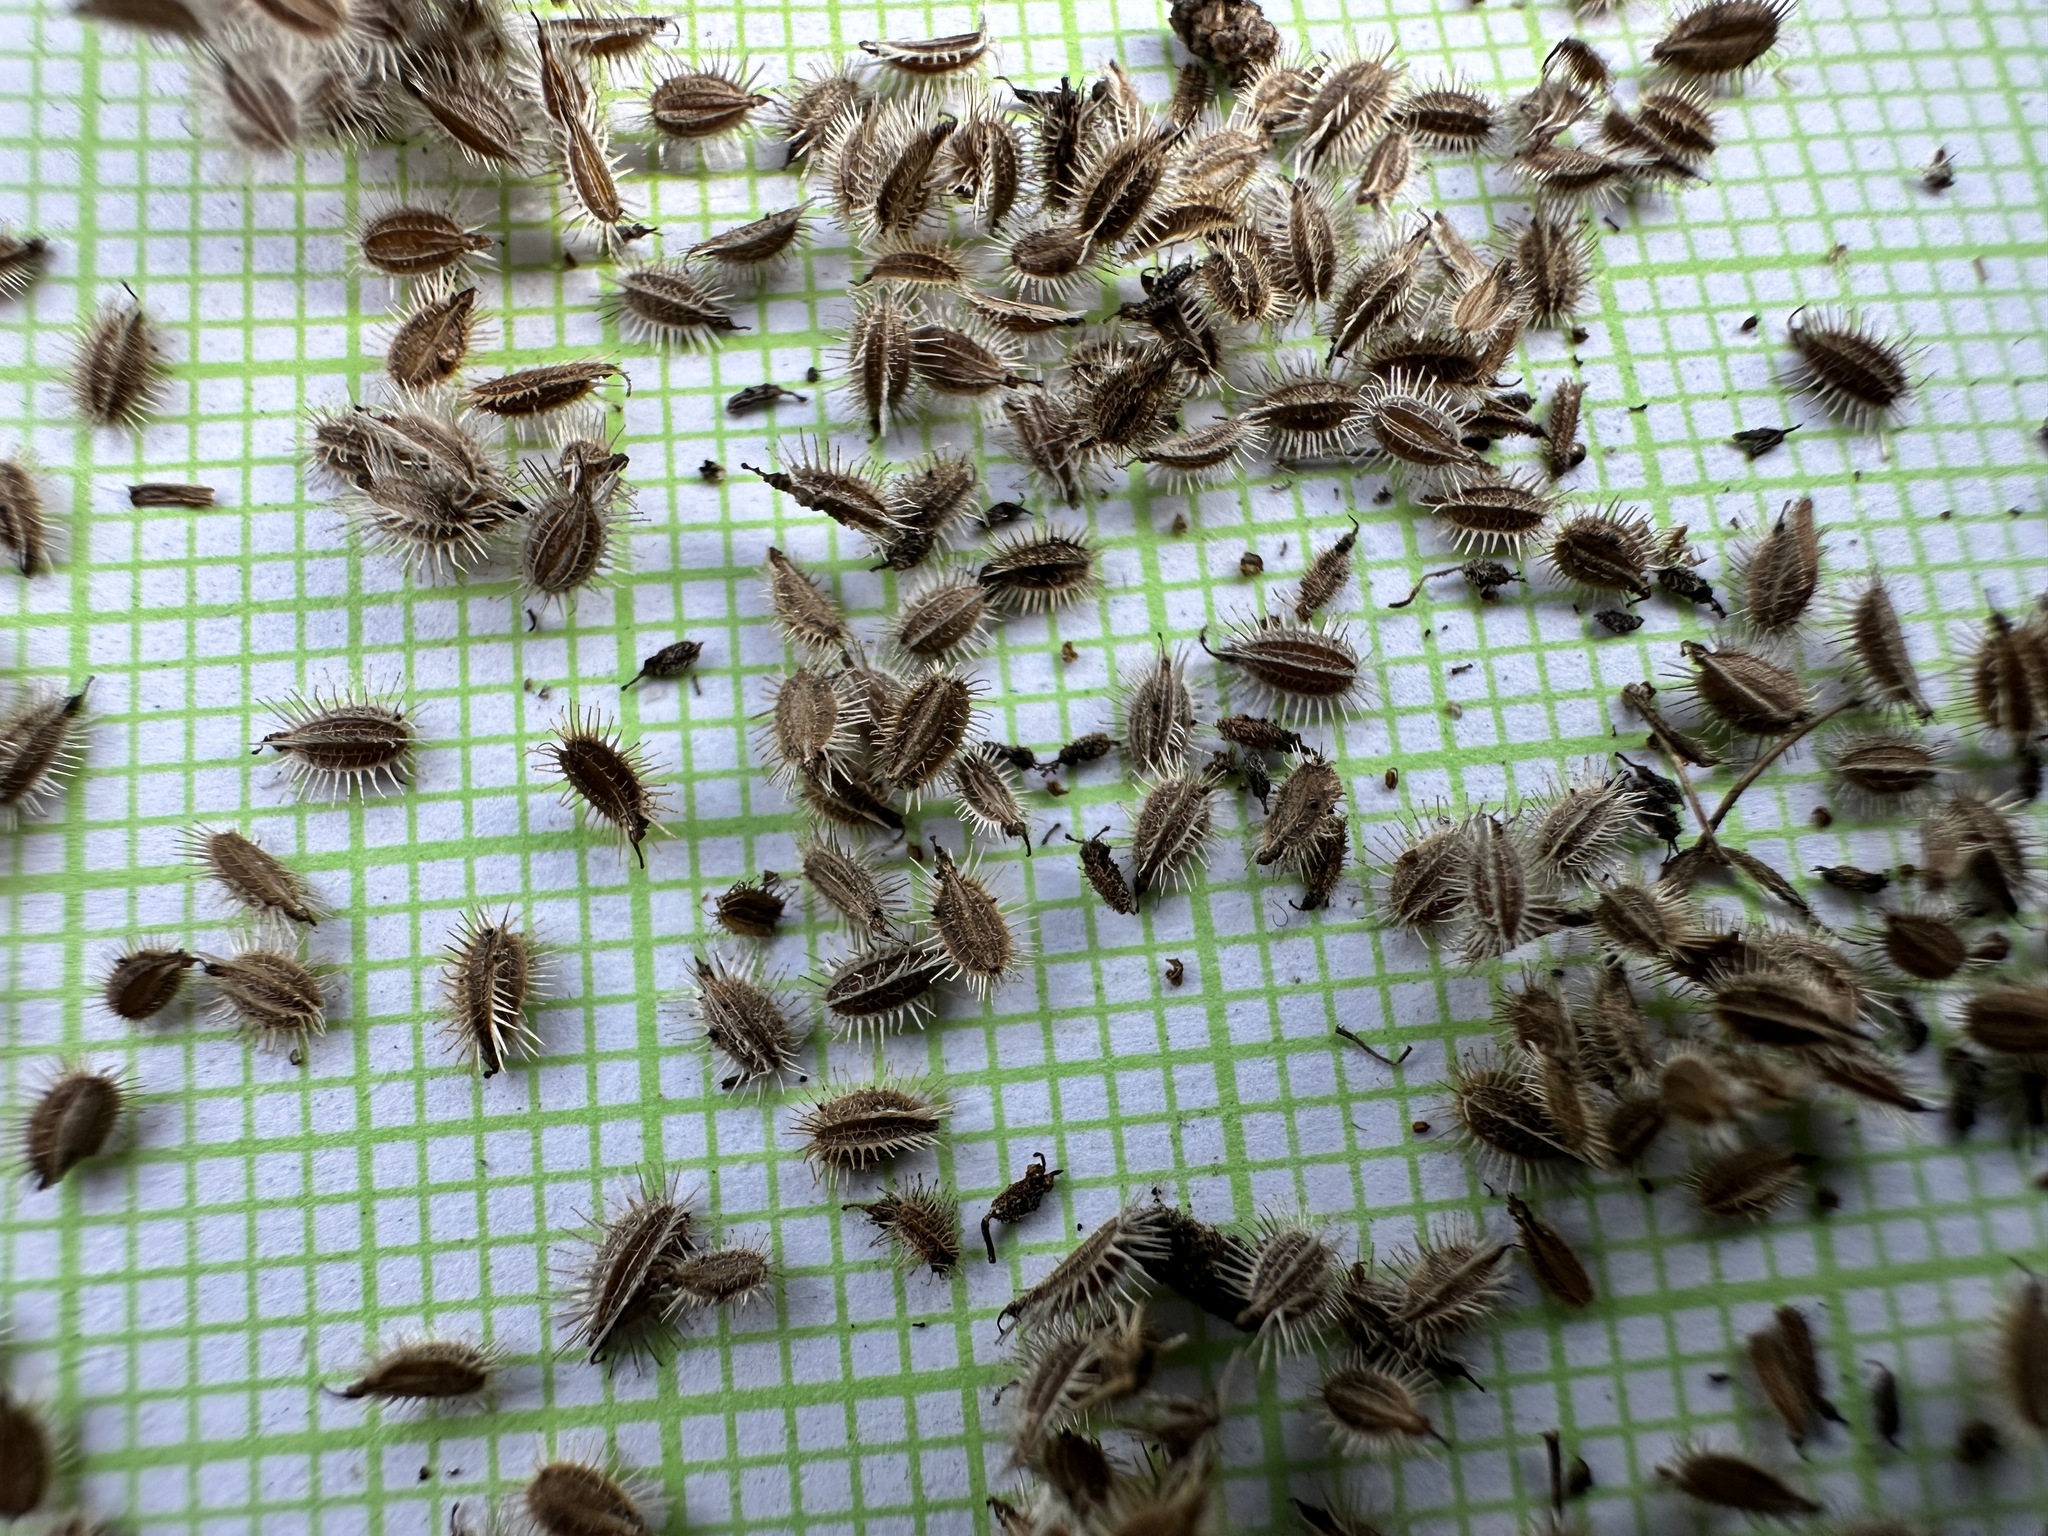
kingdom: Plantae
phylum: Tracheophyta
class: Magnoliopsida
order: Apiales
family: Apiaceae
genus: Daucus
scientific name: Daucus carota
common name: Wild carrot
